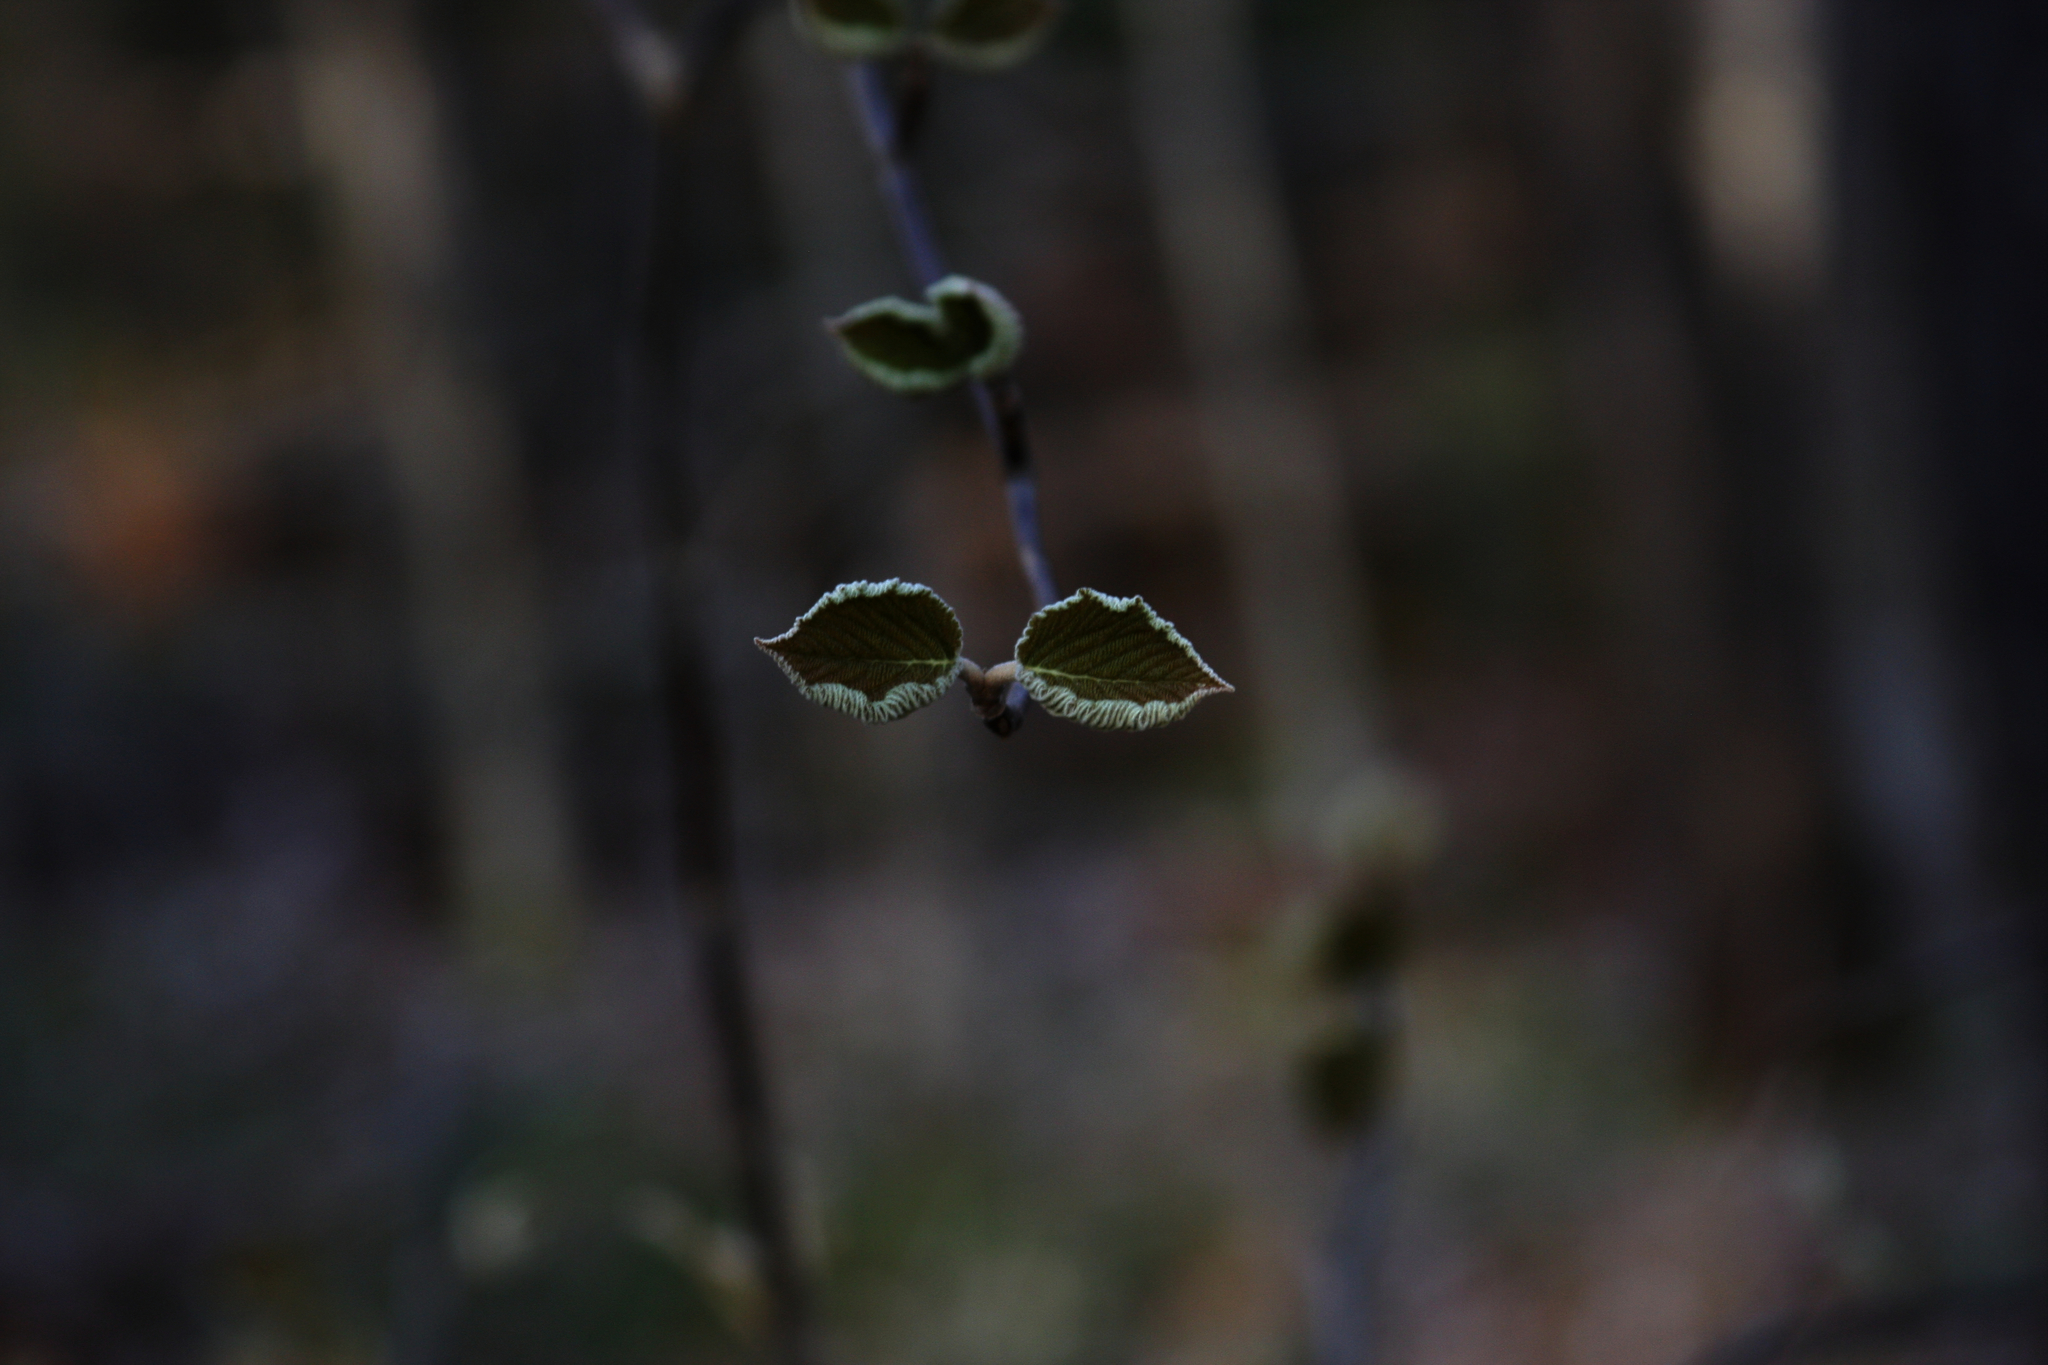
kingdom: Plantae
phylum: Tracheophyta
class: Magnoliopsida
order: Dipsacales
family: Viburnaceae
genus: Viburnum
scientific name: Viburnum lantanoides
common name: Hobblebush
